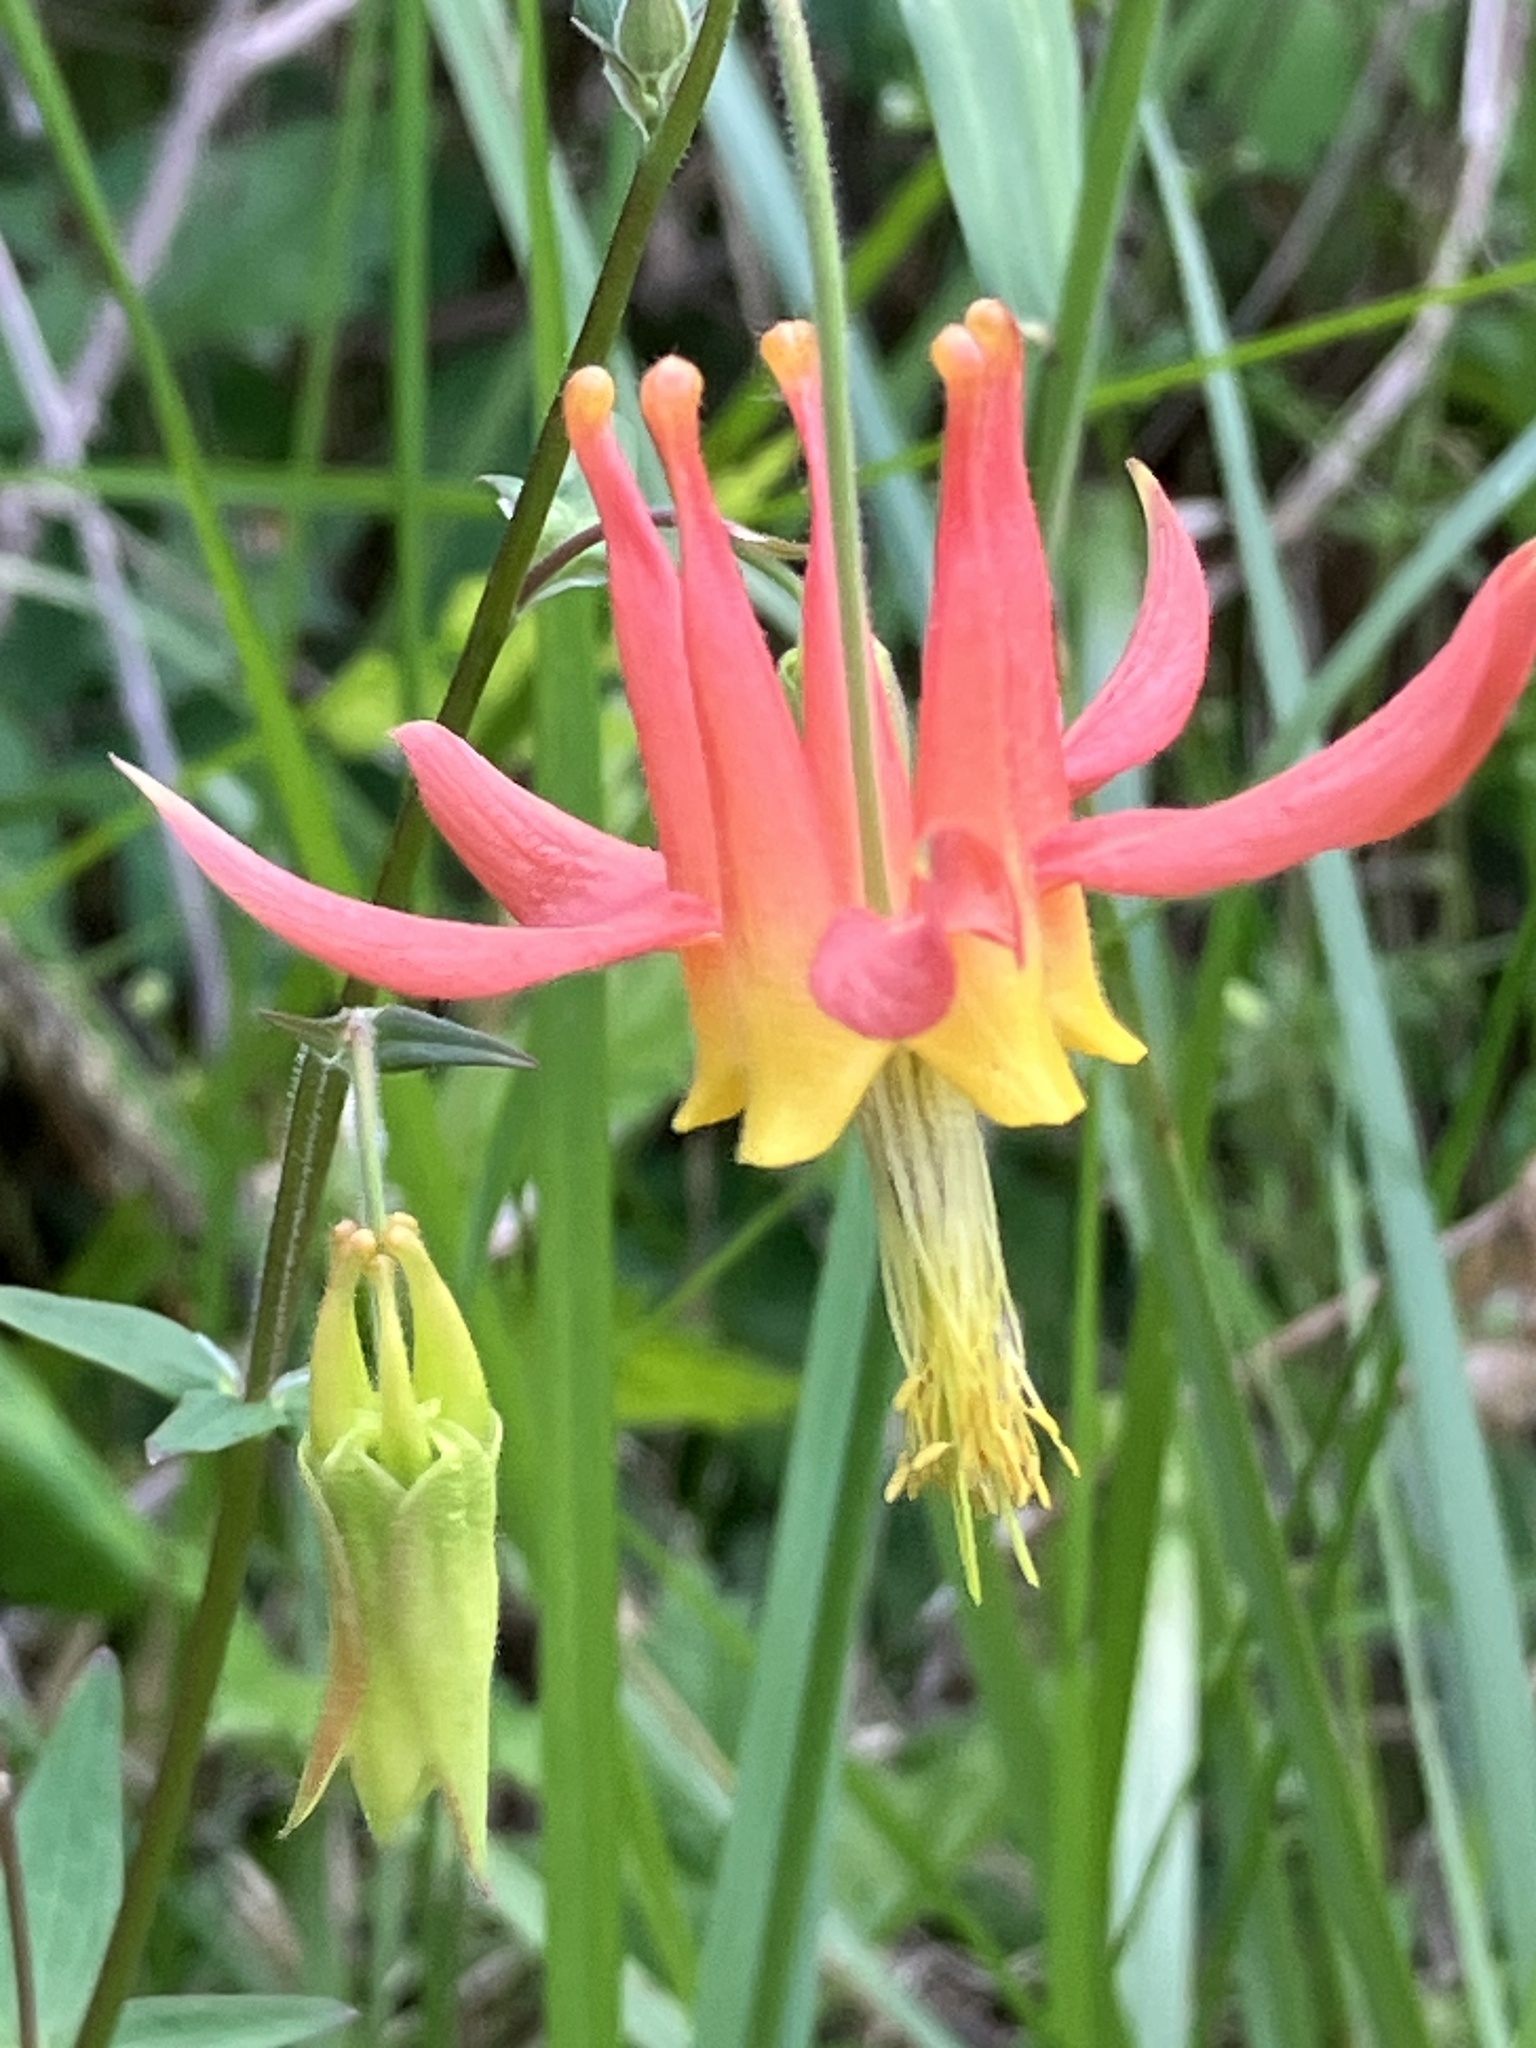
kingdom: Plantae
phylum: Tracheophyta
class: Magnoliopsida
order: Ranunculales
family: Ranunculaceae
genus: Aquilegia
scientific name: Aquilegia formosa
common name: Sitka columbine
